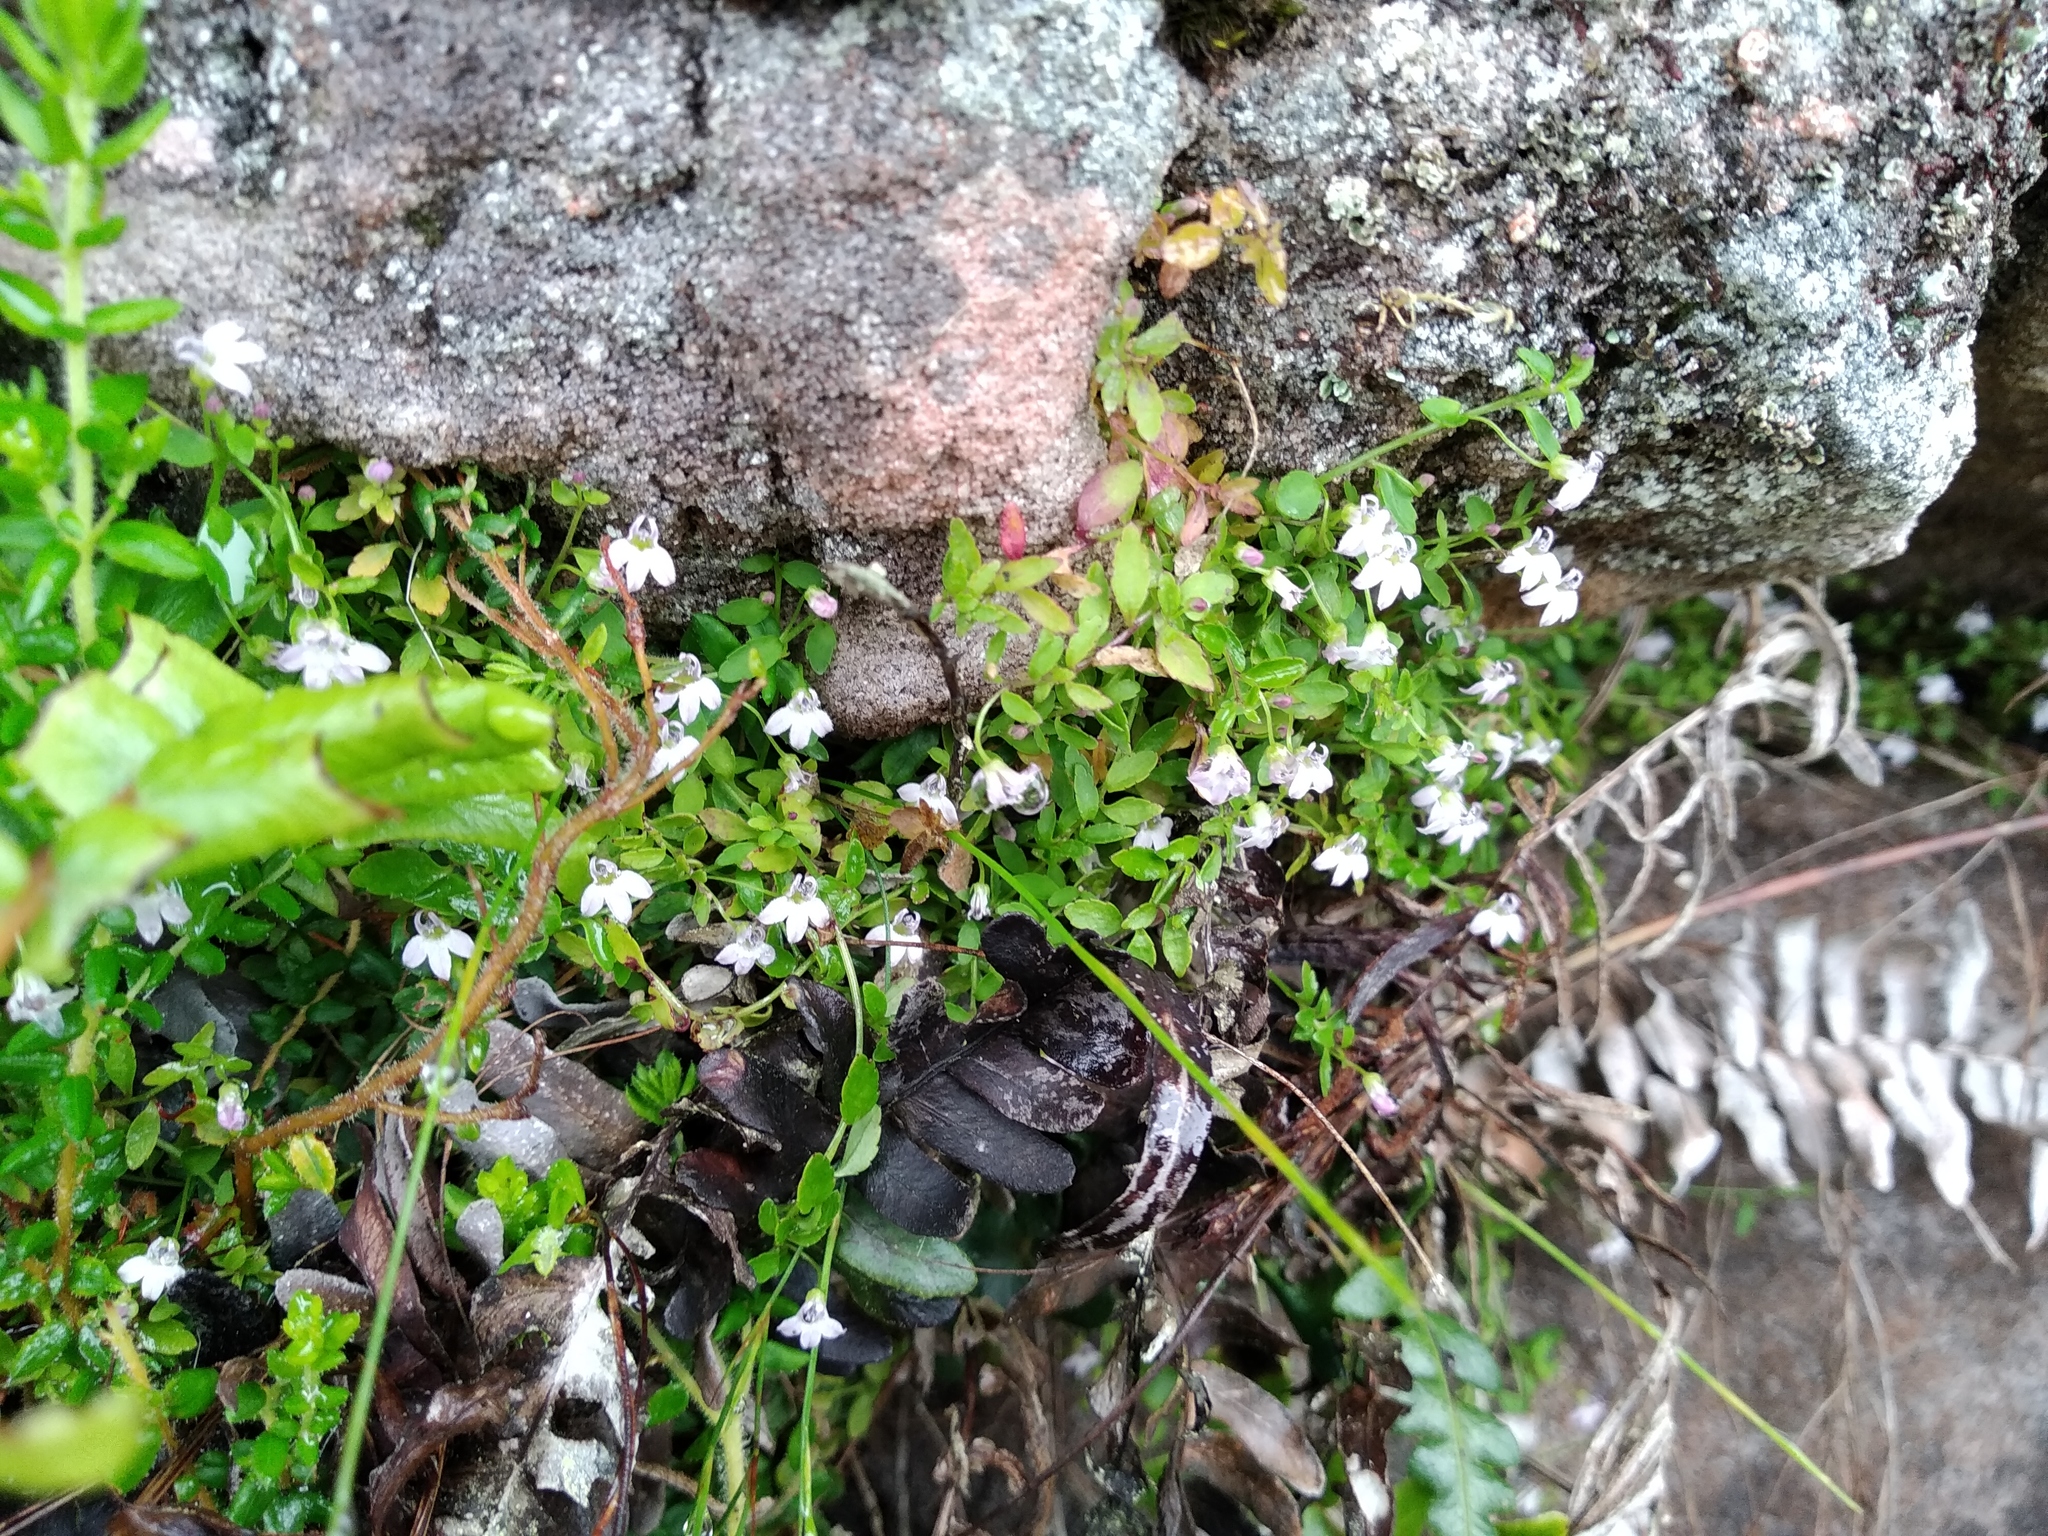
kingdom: Plantae
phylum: Tracheophyta
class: Magnoliopsida
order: Asterales
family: Campanulaceae
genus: Unigenes
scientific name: Unigenes humifusa
